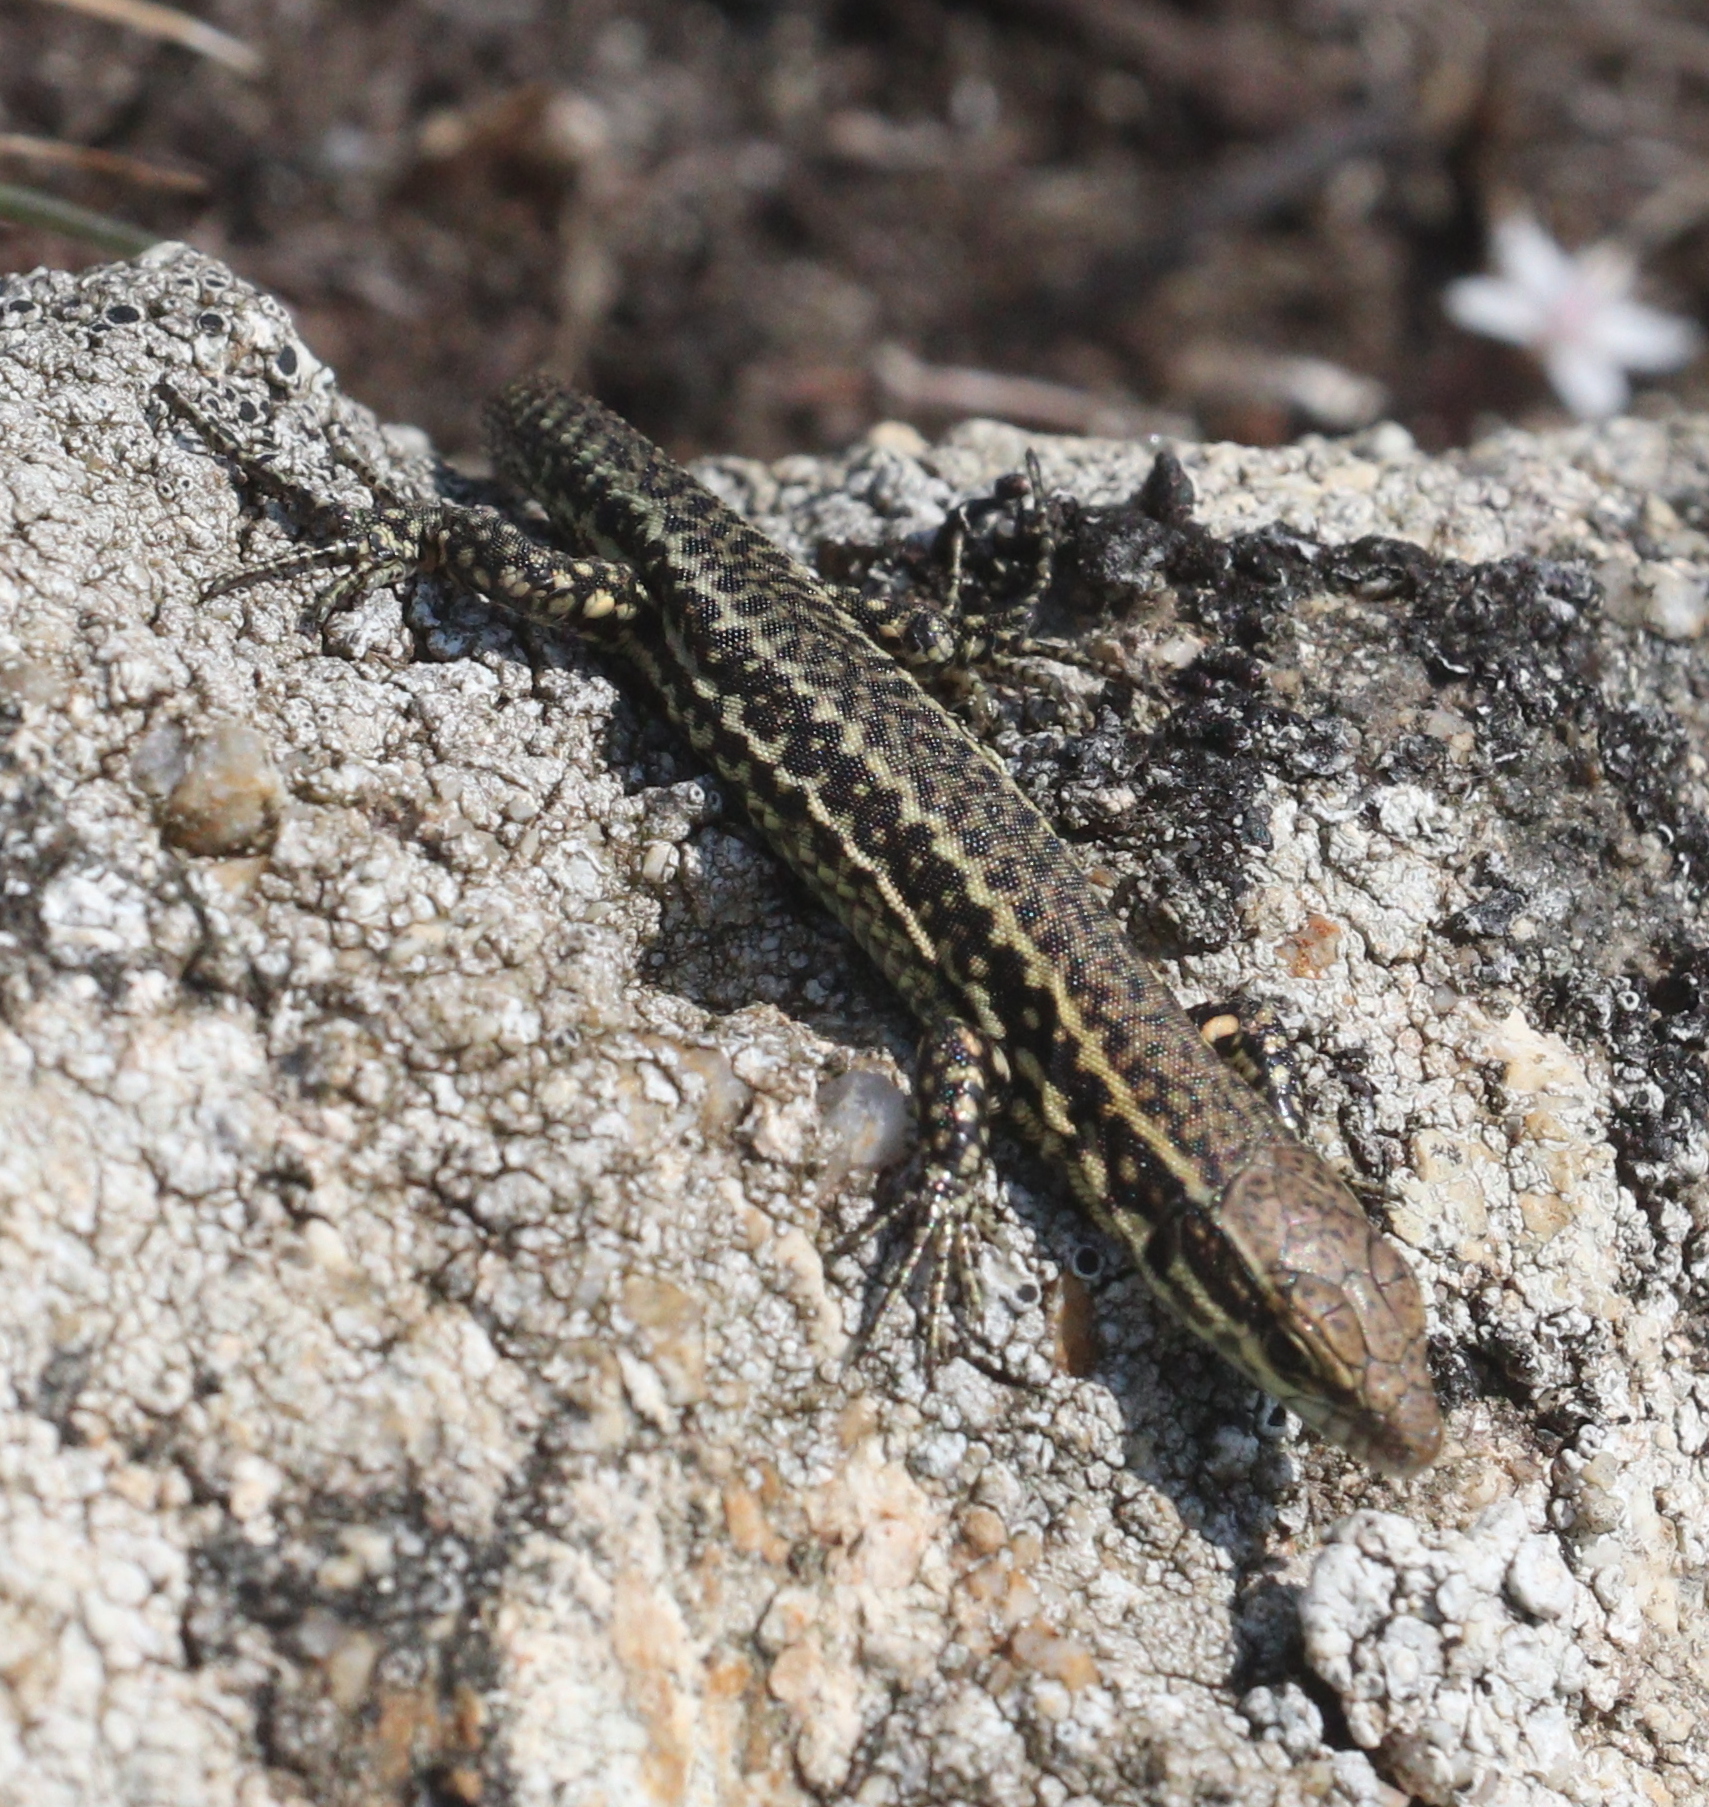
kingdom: Animalia
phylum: Chordata
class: Squamata
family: Lacertidae
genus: Podarcis
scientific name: Podarcis muralis
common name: Common wall lizard
